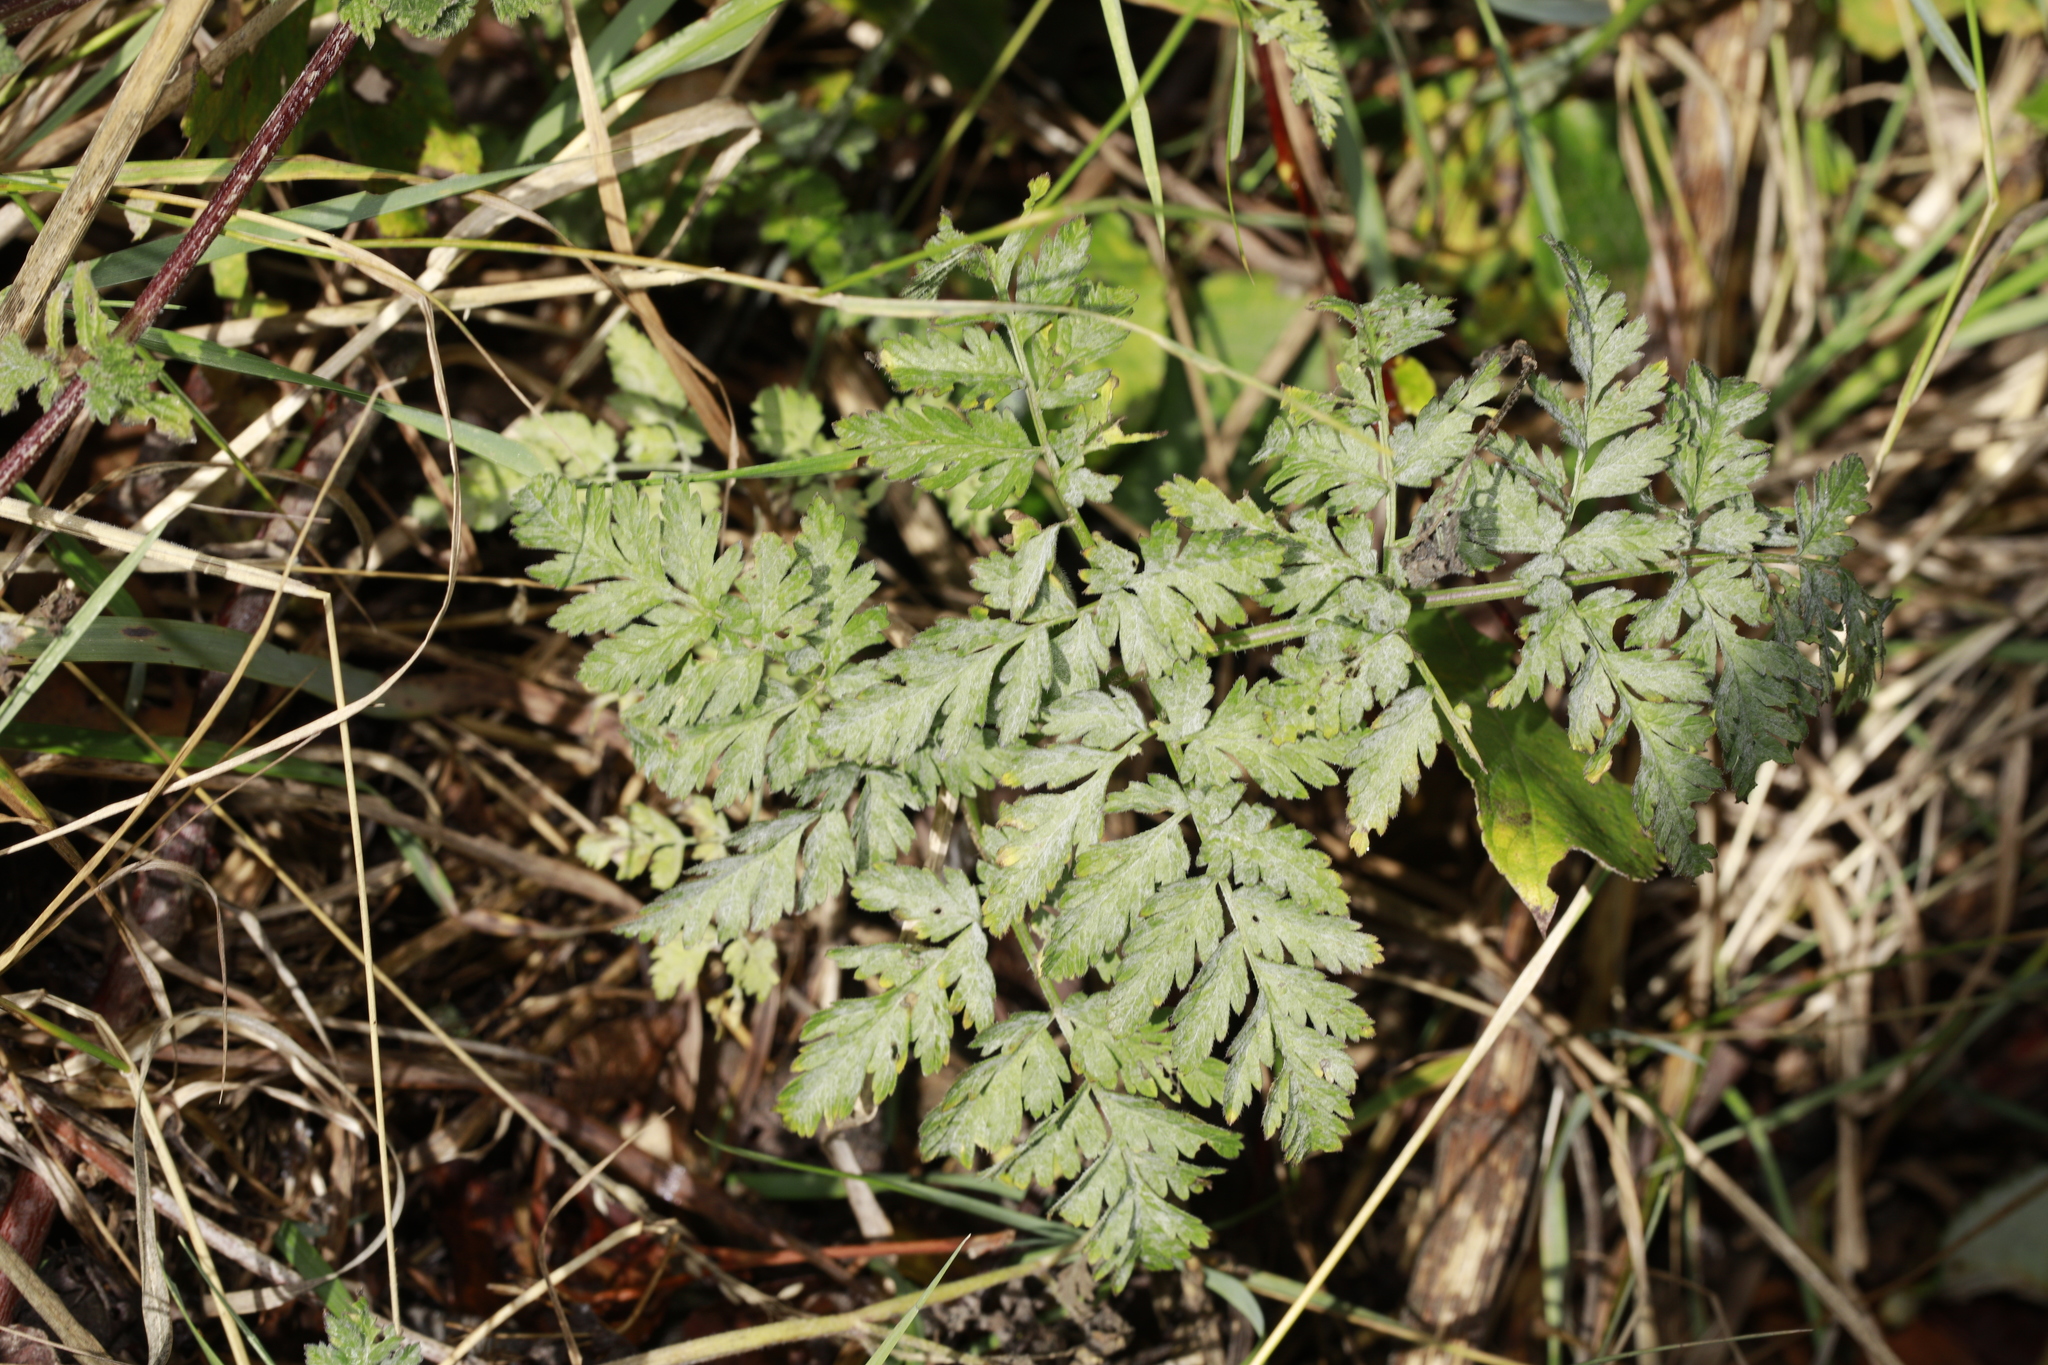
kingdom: Plantae
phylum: Tracheophyta
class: Magnoliopsida
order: Apiales
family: Apiaceae
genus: Anthriscus
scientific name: Anthriscus sylvestris
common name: Cow parsley
